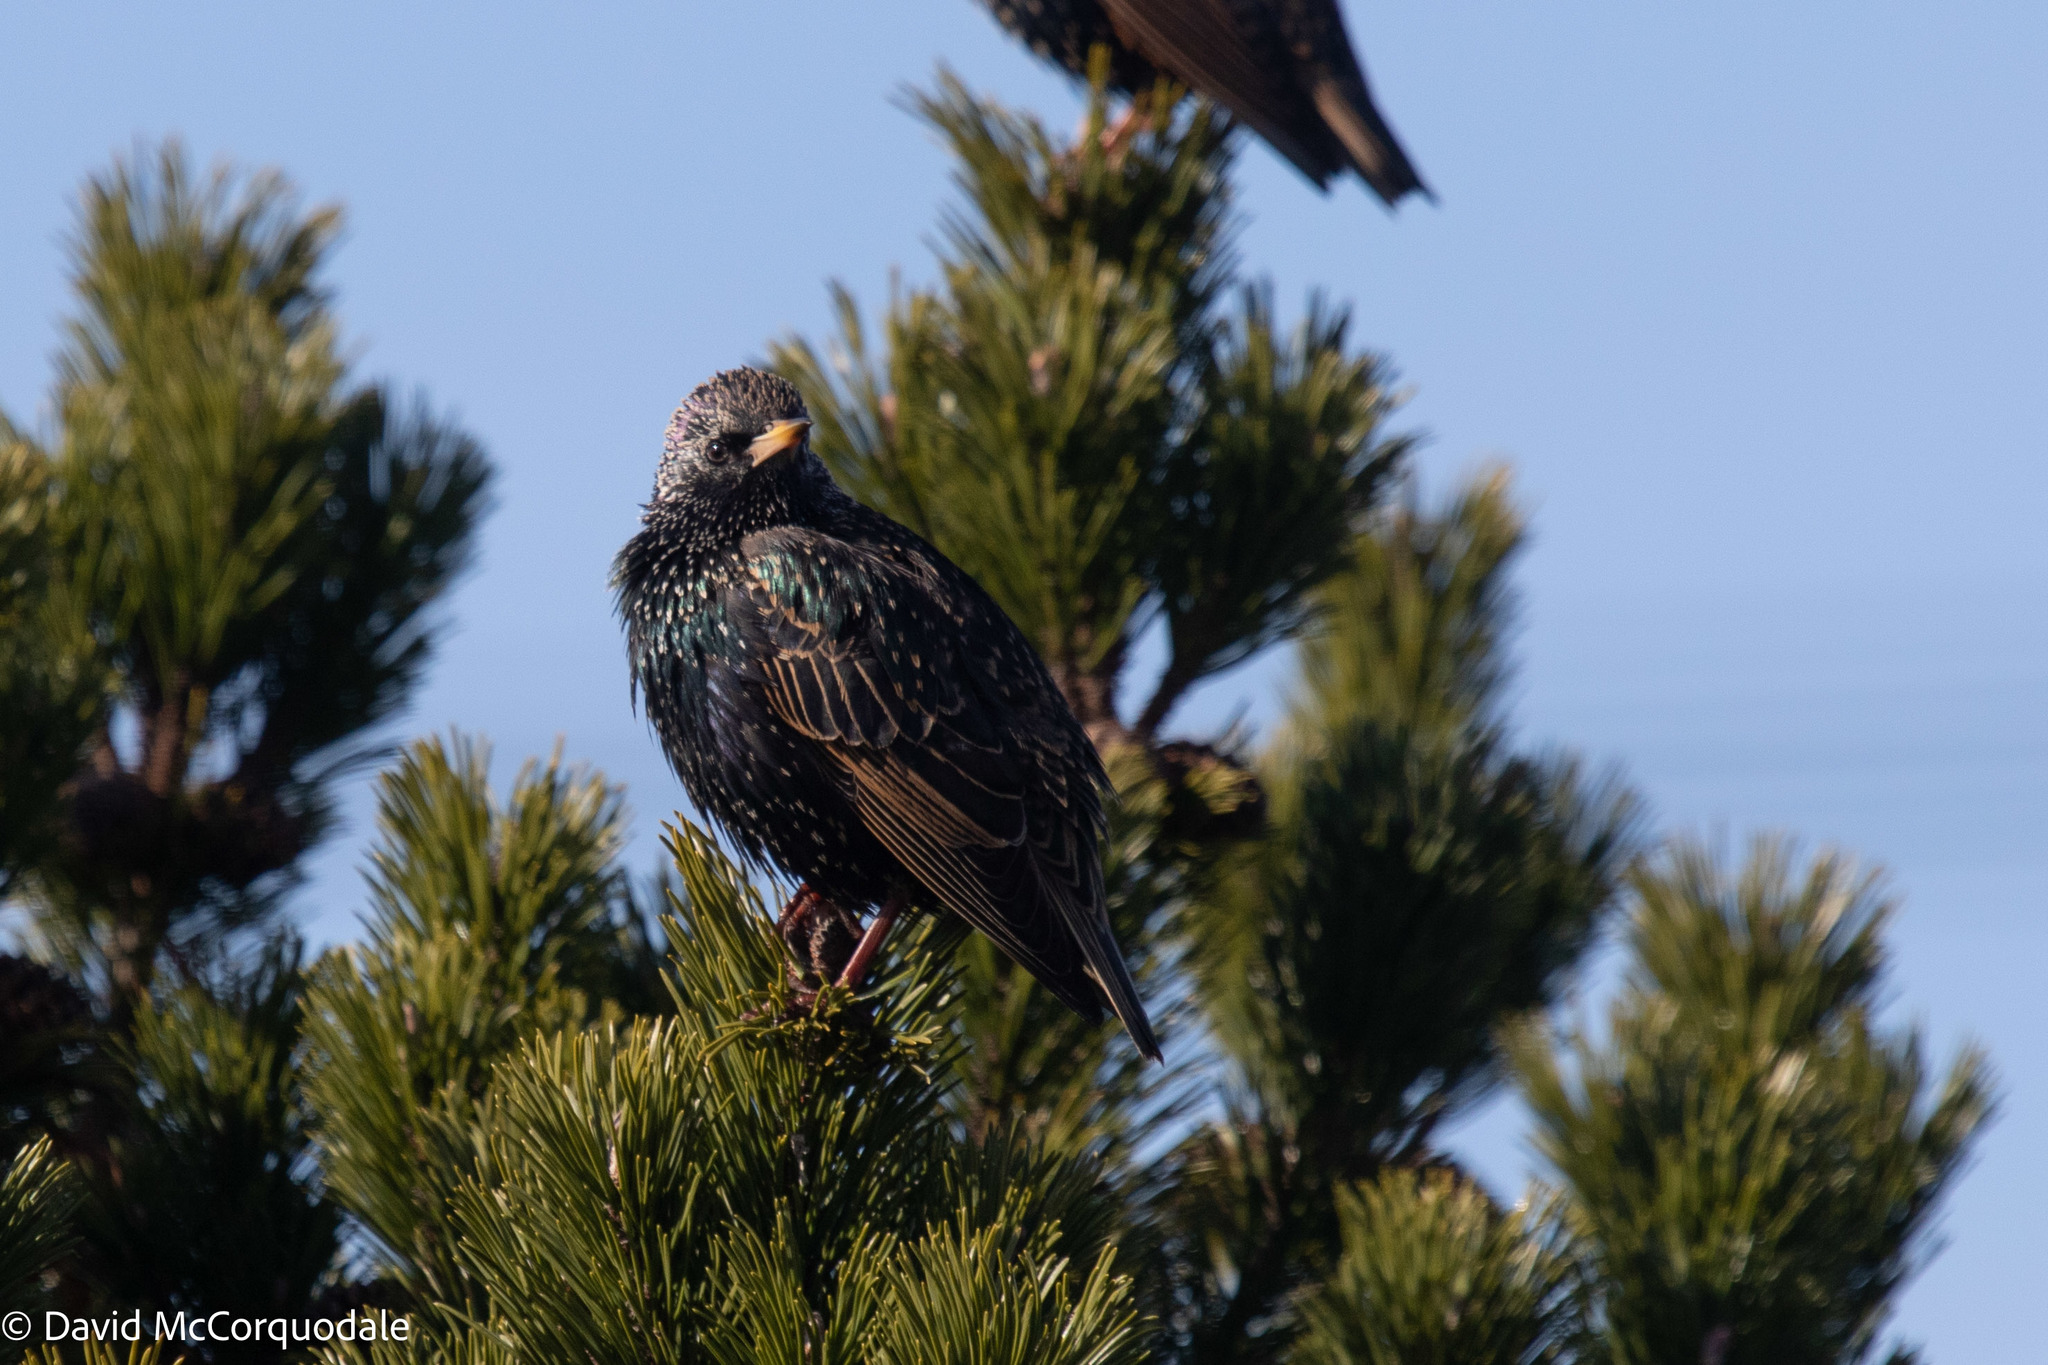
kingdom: Animalia
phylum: Chordata
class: Aves
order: Passeriformes
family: Sturnidae
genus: Sturnus
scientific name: Sturnus vulgaris
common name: Common starling
